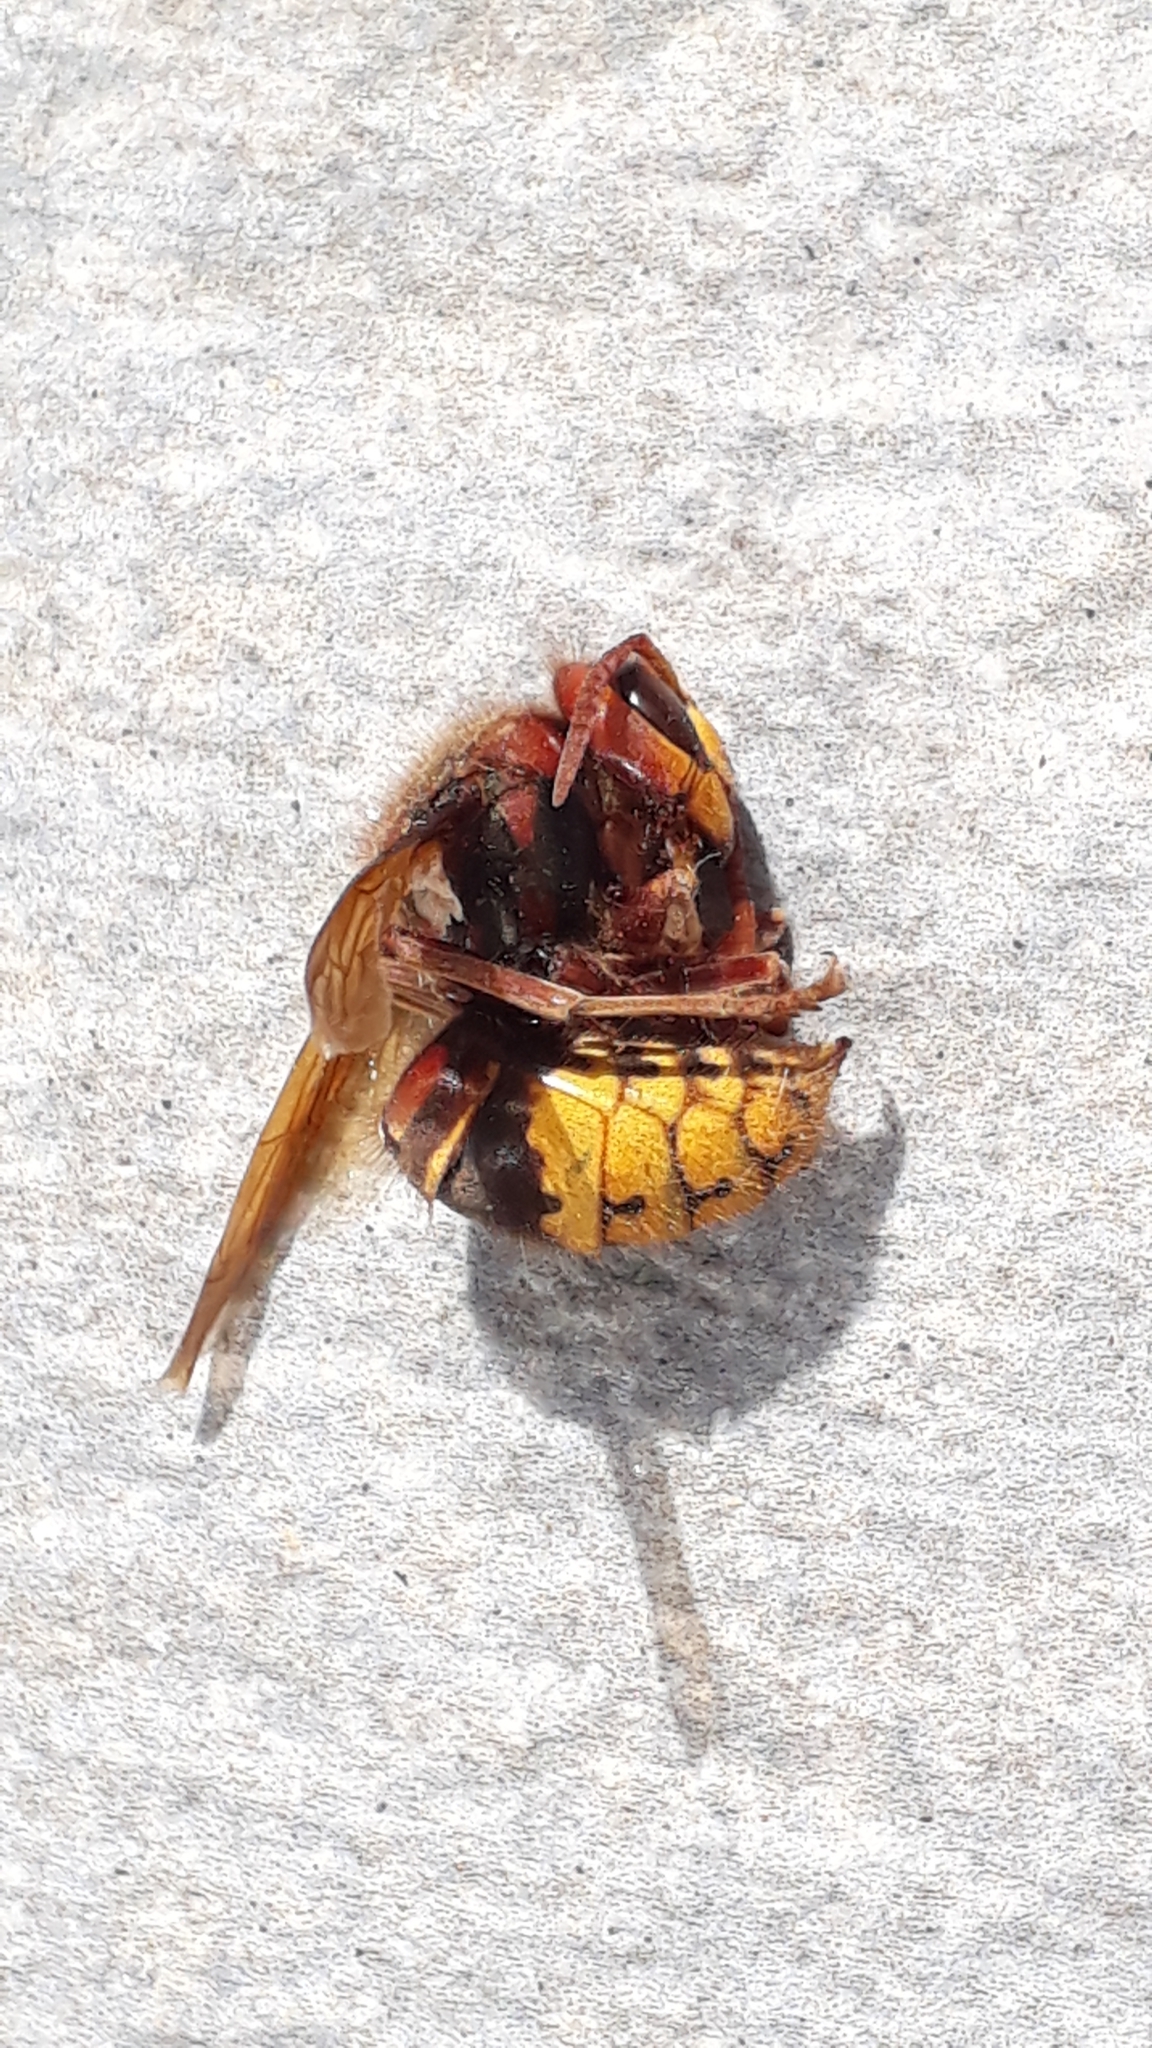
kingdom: Animalia
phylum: Arthropoda
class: Insecta
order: Hymenoptera
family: Vespidae
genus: Vespa
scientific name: Vespa crabro
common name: Hornet
